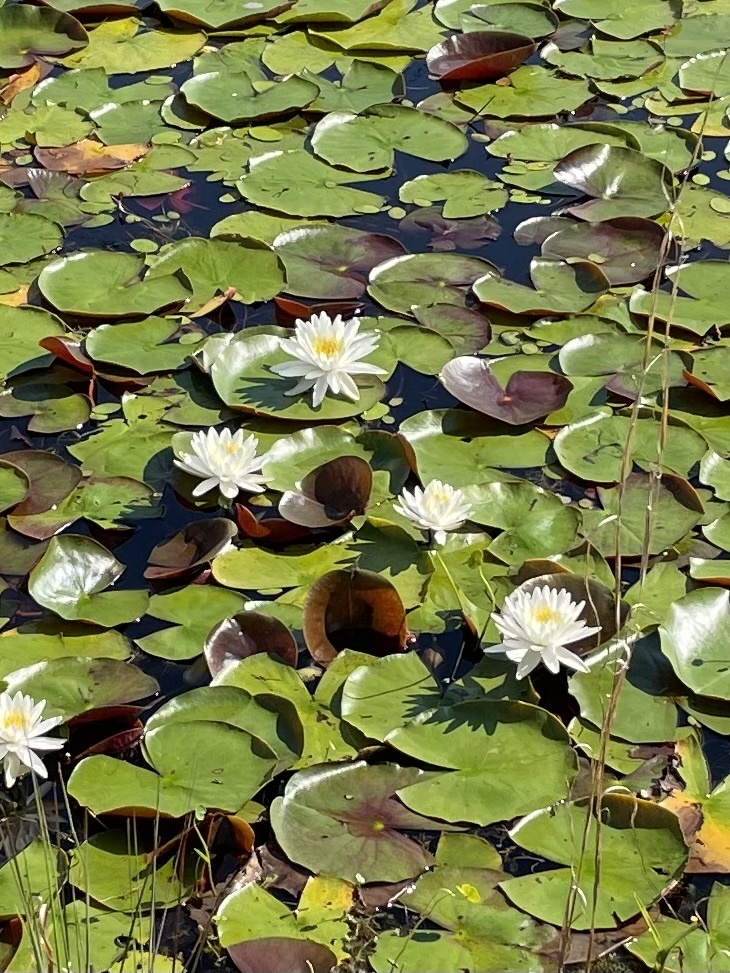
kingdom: Plantae
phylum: Tracheophyta
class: Magnoliopsida
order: Nymphaeales
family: Nymphaeaceae
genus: Nymphaea
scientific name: Nymphaea odorata
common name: Fragrant water-lily
